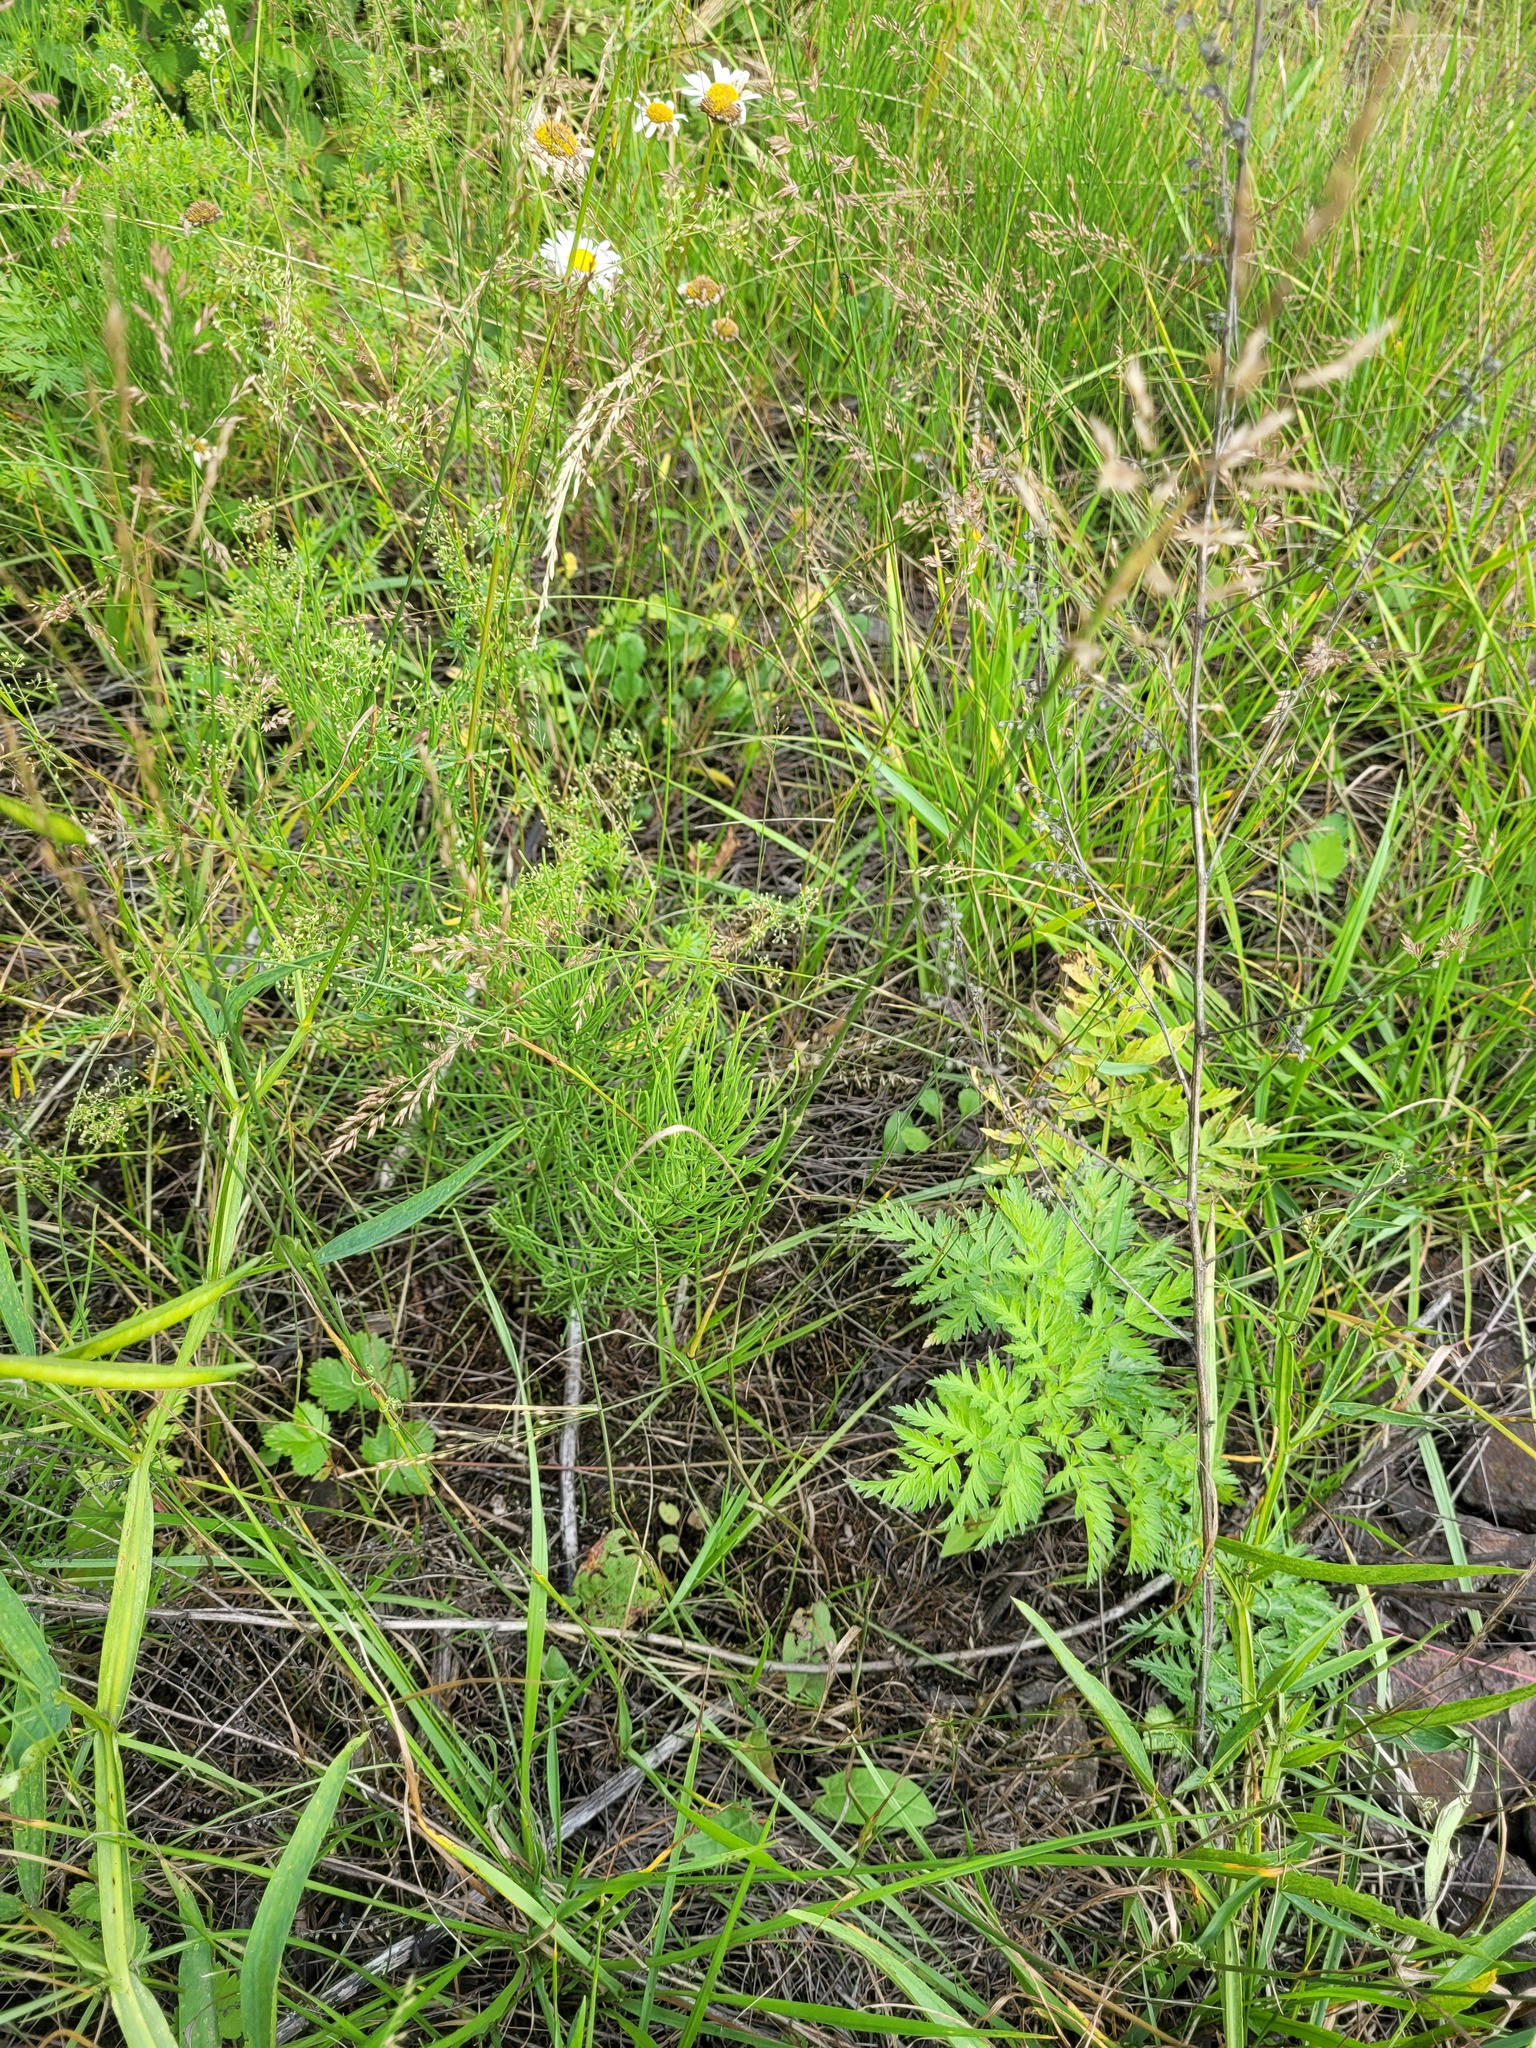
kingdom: Plantae
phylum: Tracheophyta
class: Polypodiopsida
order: Equisetales
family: Equisetaceae
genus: Equisetum
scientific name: Equisetum arvense
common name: Field horsetail
